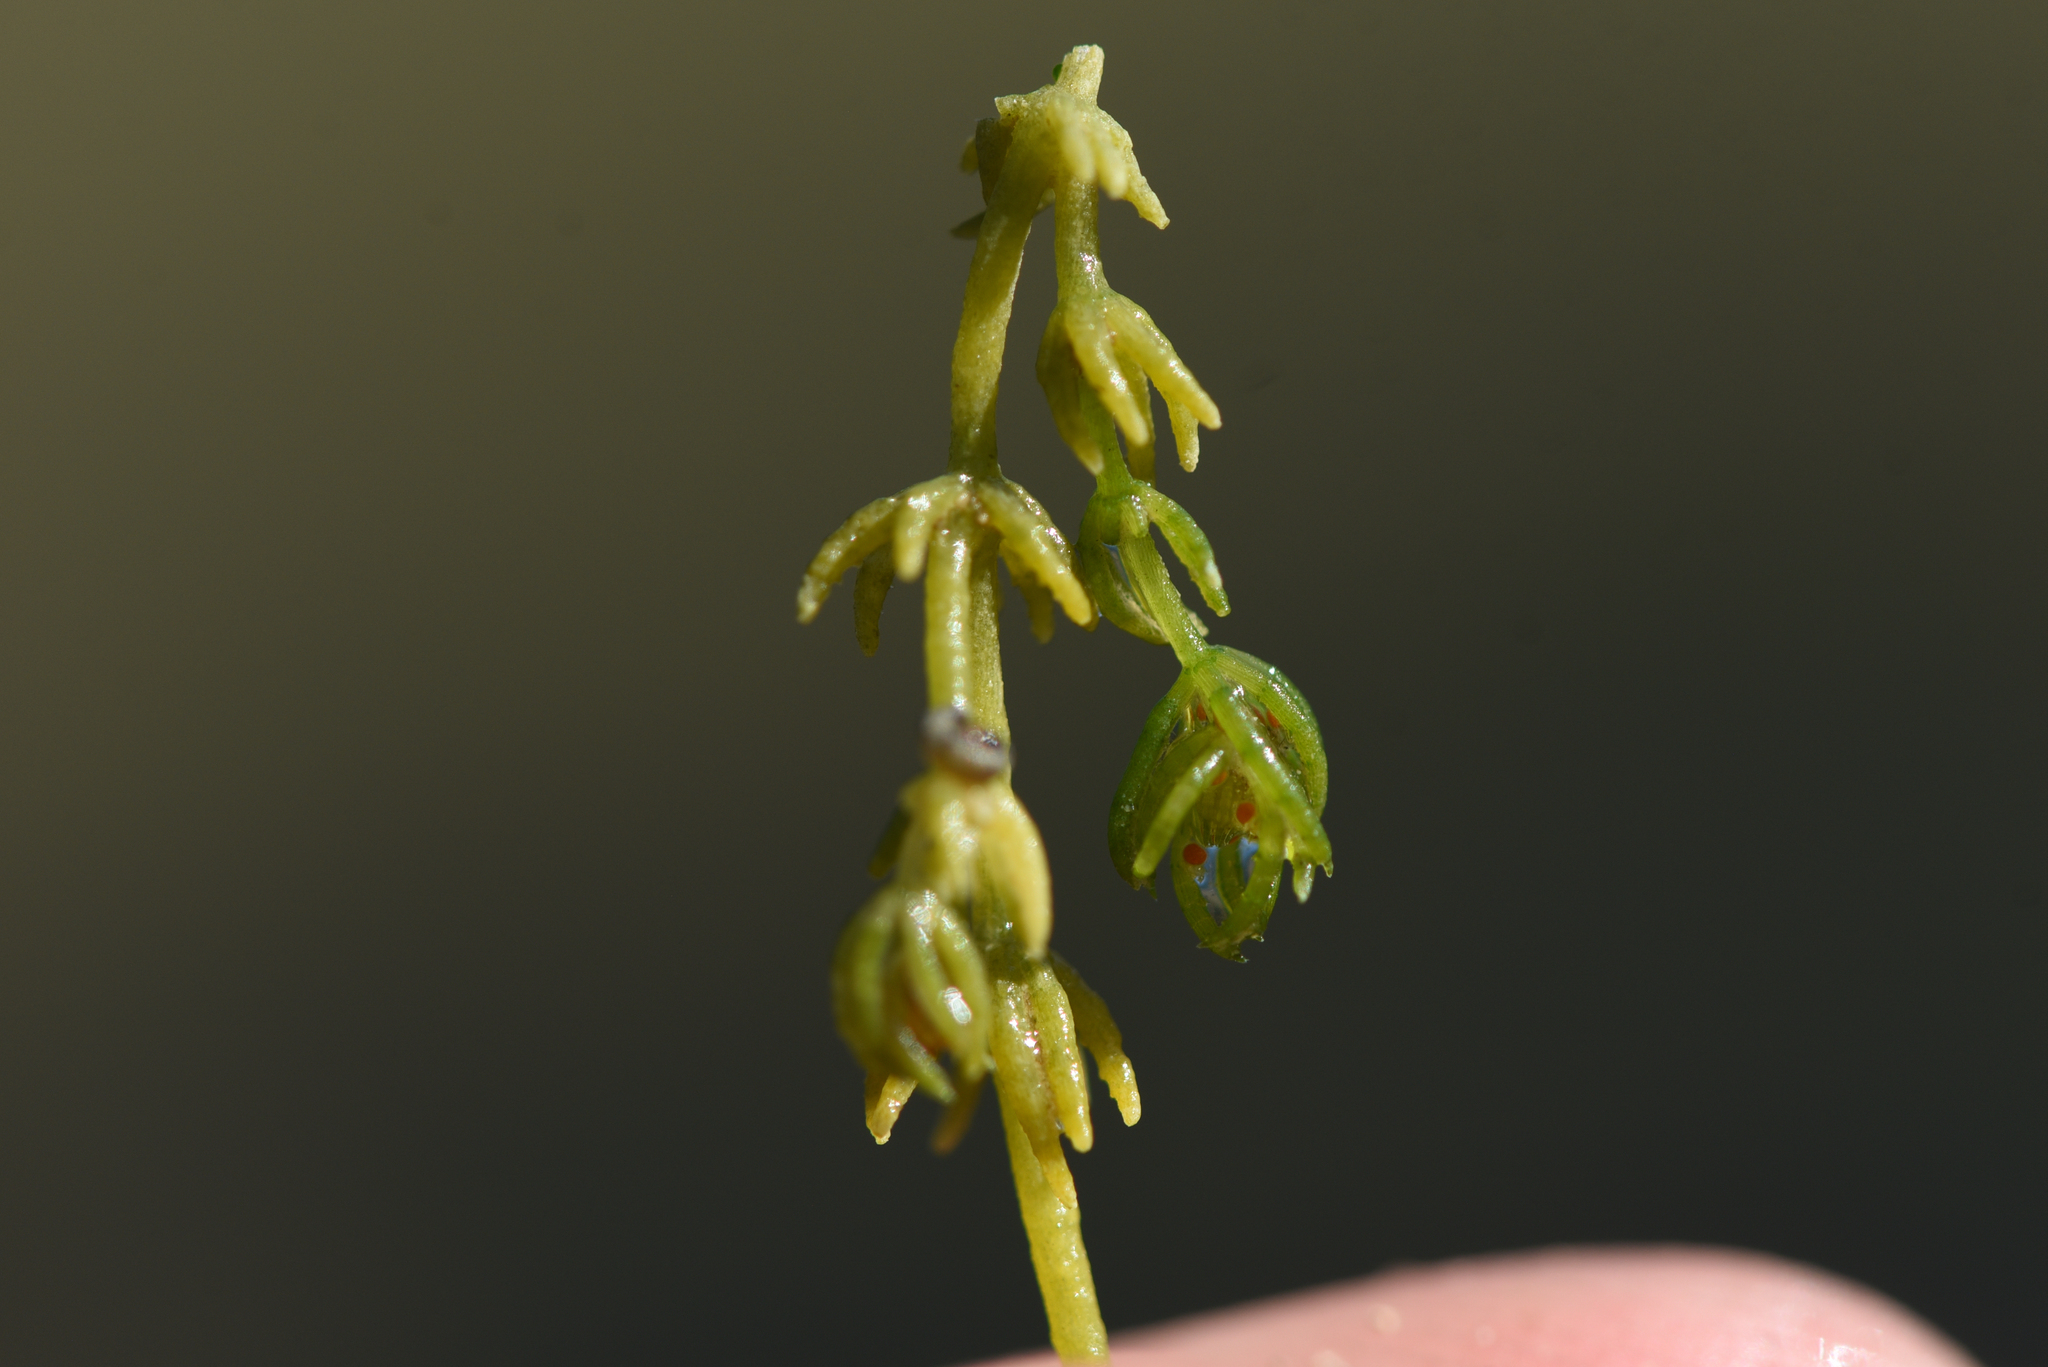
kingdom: Plantae
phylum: Charophyta
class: Charophyceae
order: Charales
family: Characeae
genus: Chara
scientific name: Chara globularis
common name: Fragile stonewort
